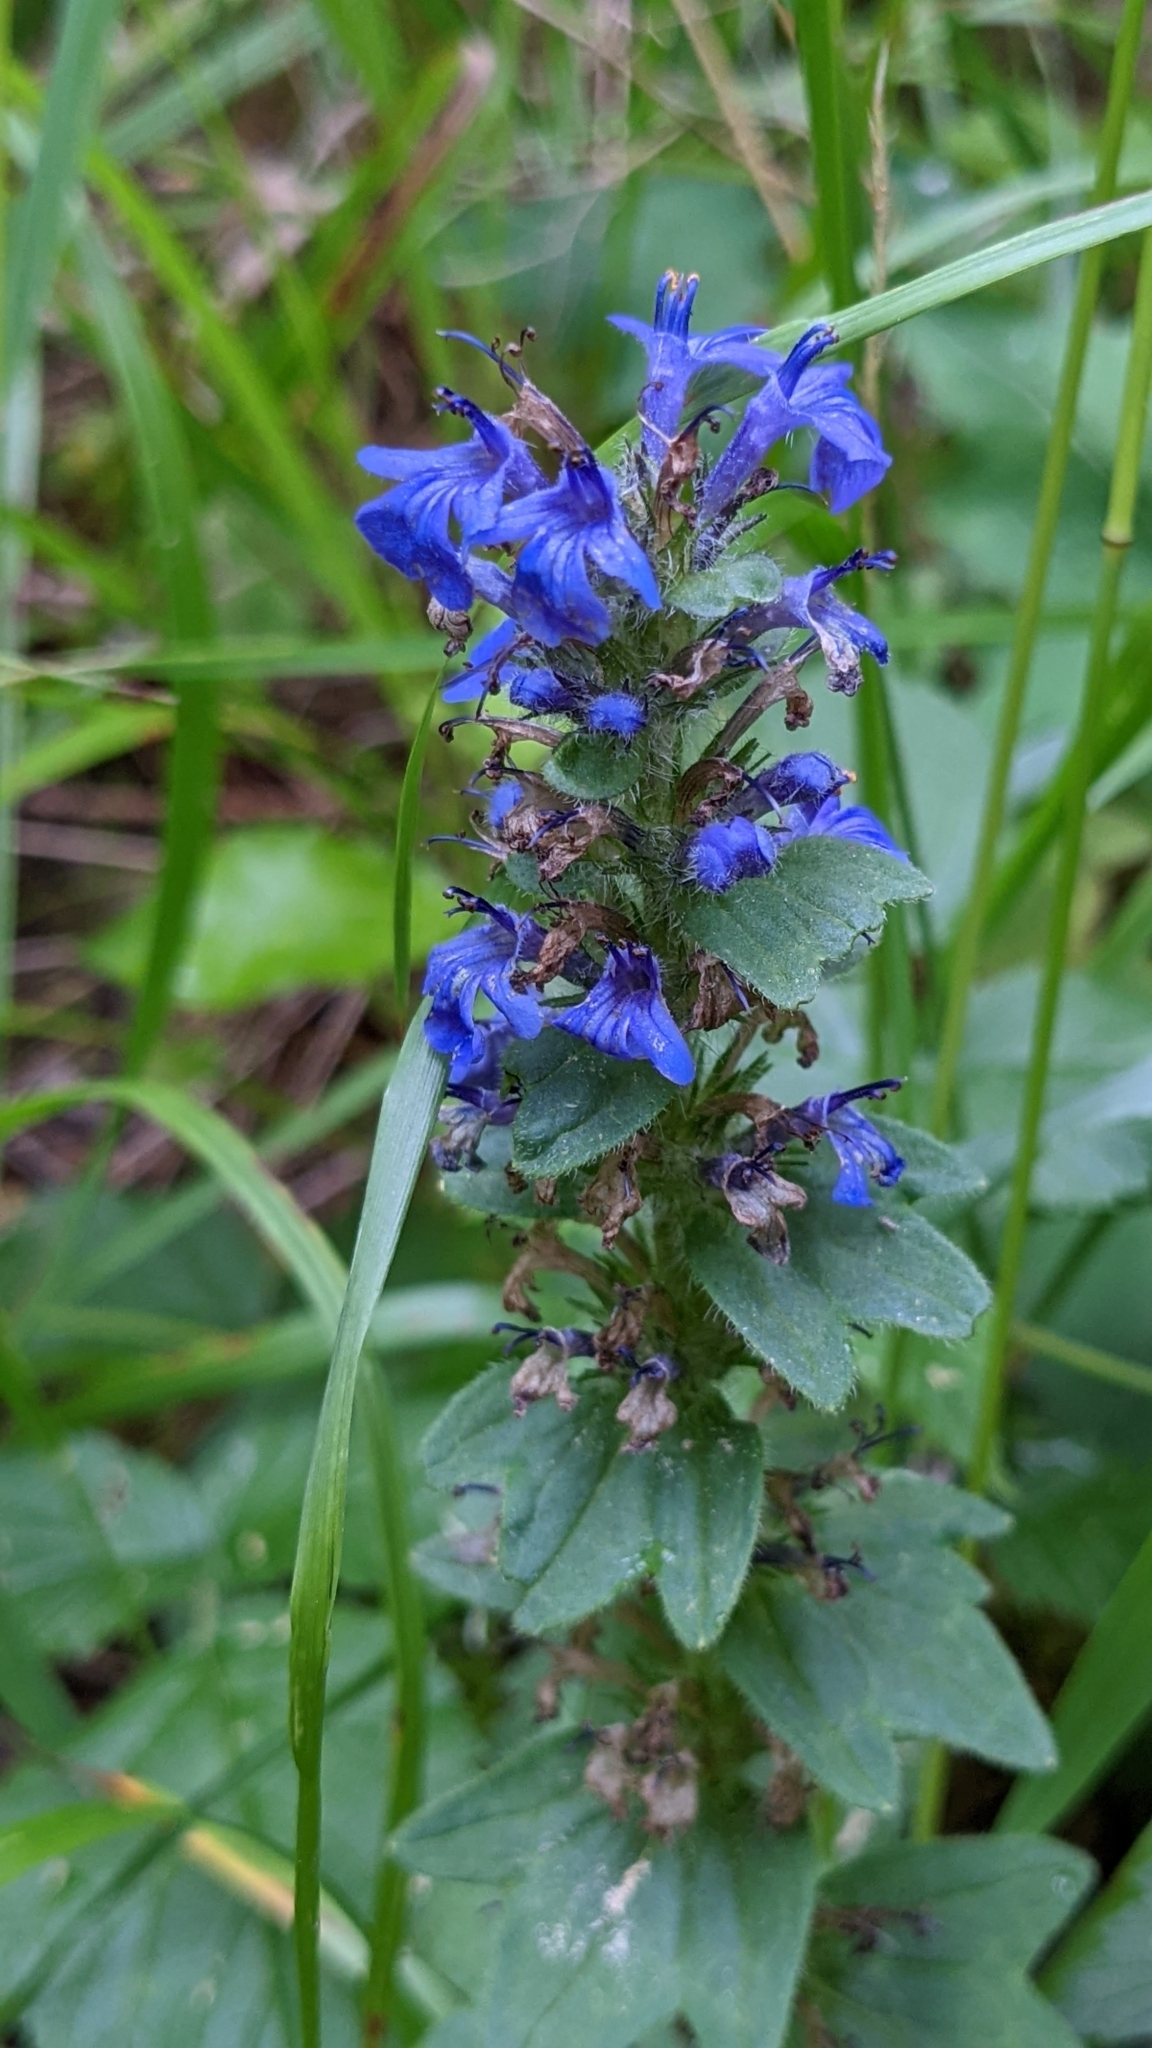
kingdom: Plantae
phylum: Tracheophyta
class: Magnoliopsida
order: Lamiales
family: Lamiaceae
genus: Ajuga
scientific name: Ajuga genevensis
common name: Blue bugle
